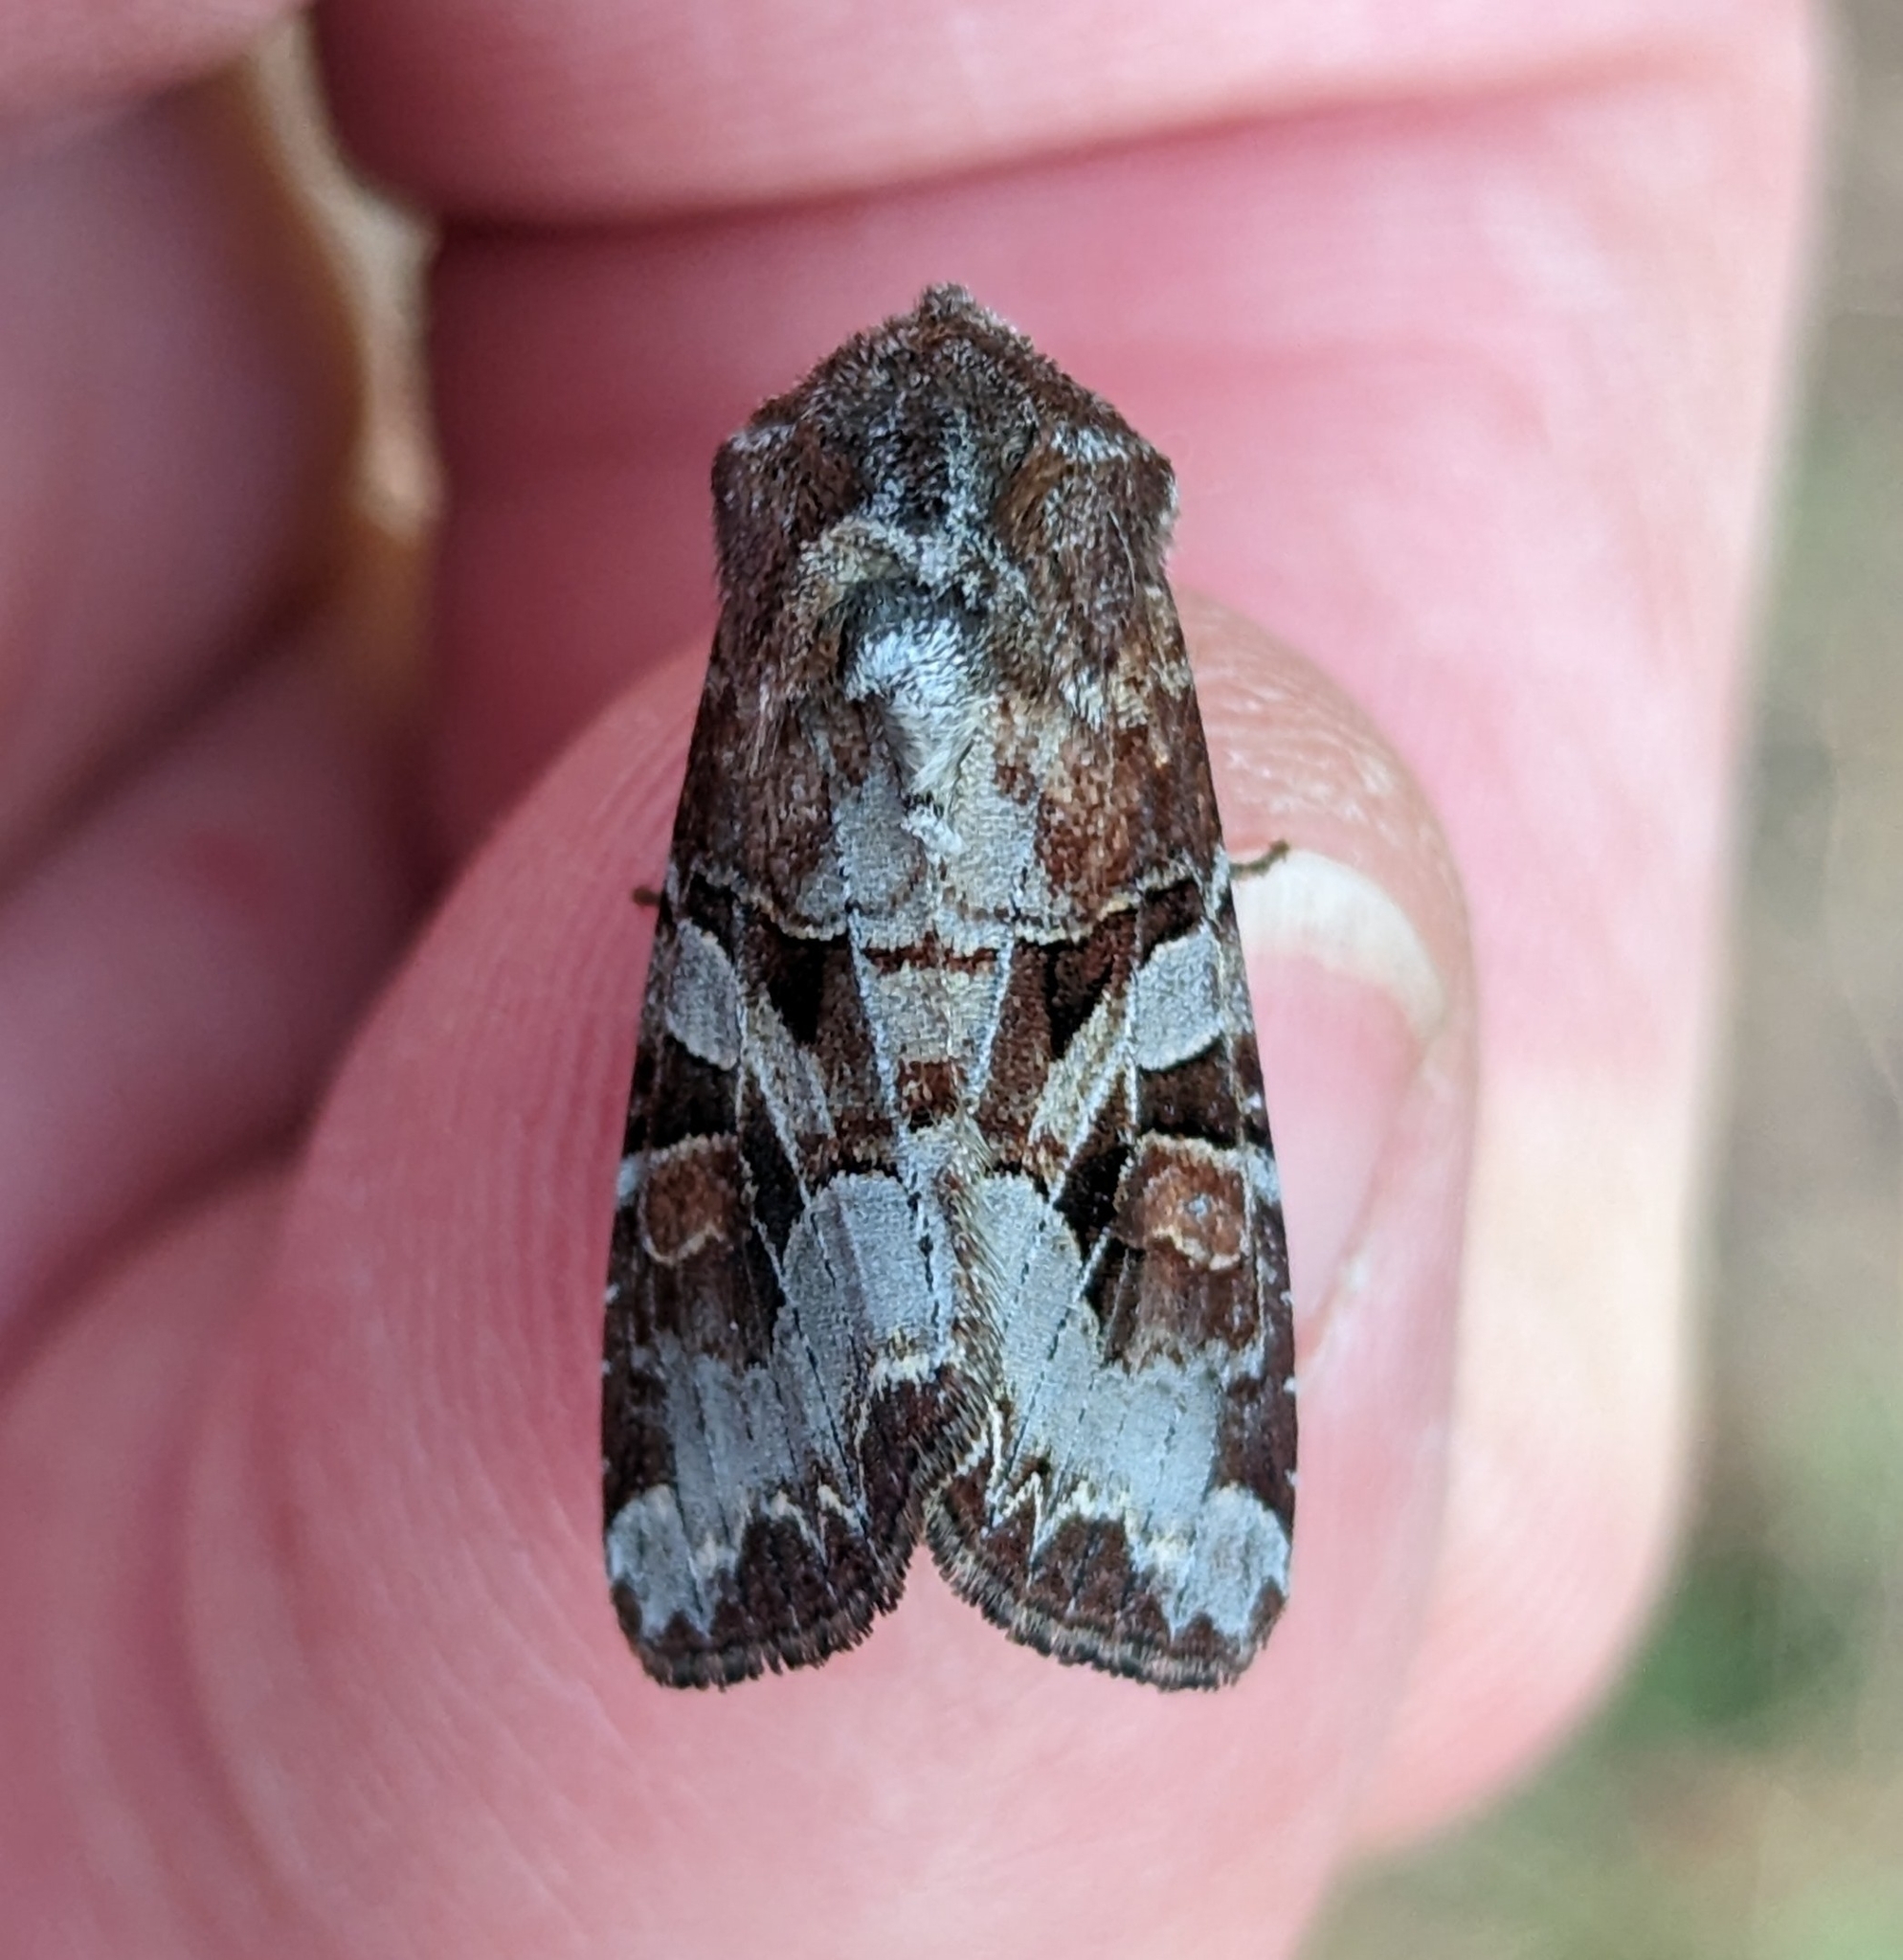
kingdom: Animalia
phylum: Arthropoda
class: Insecta
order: Lepidoptera
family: Noctuidae
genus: Trichordestra
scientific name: Trichordestra tacoma
